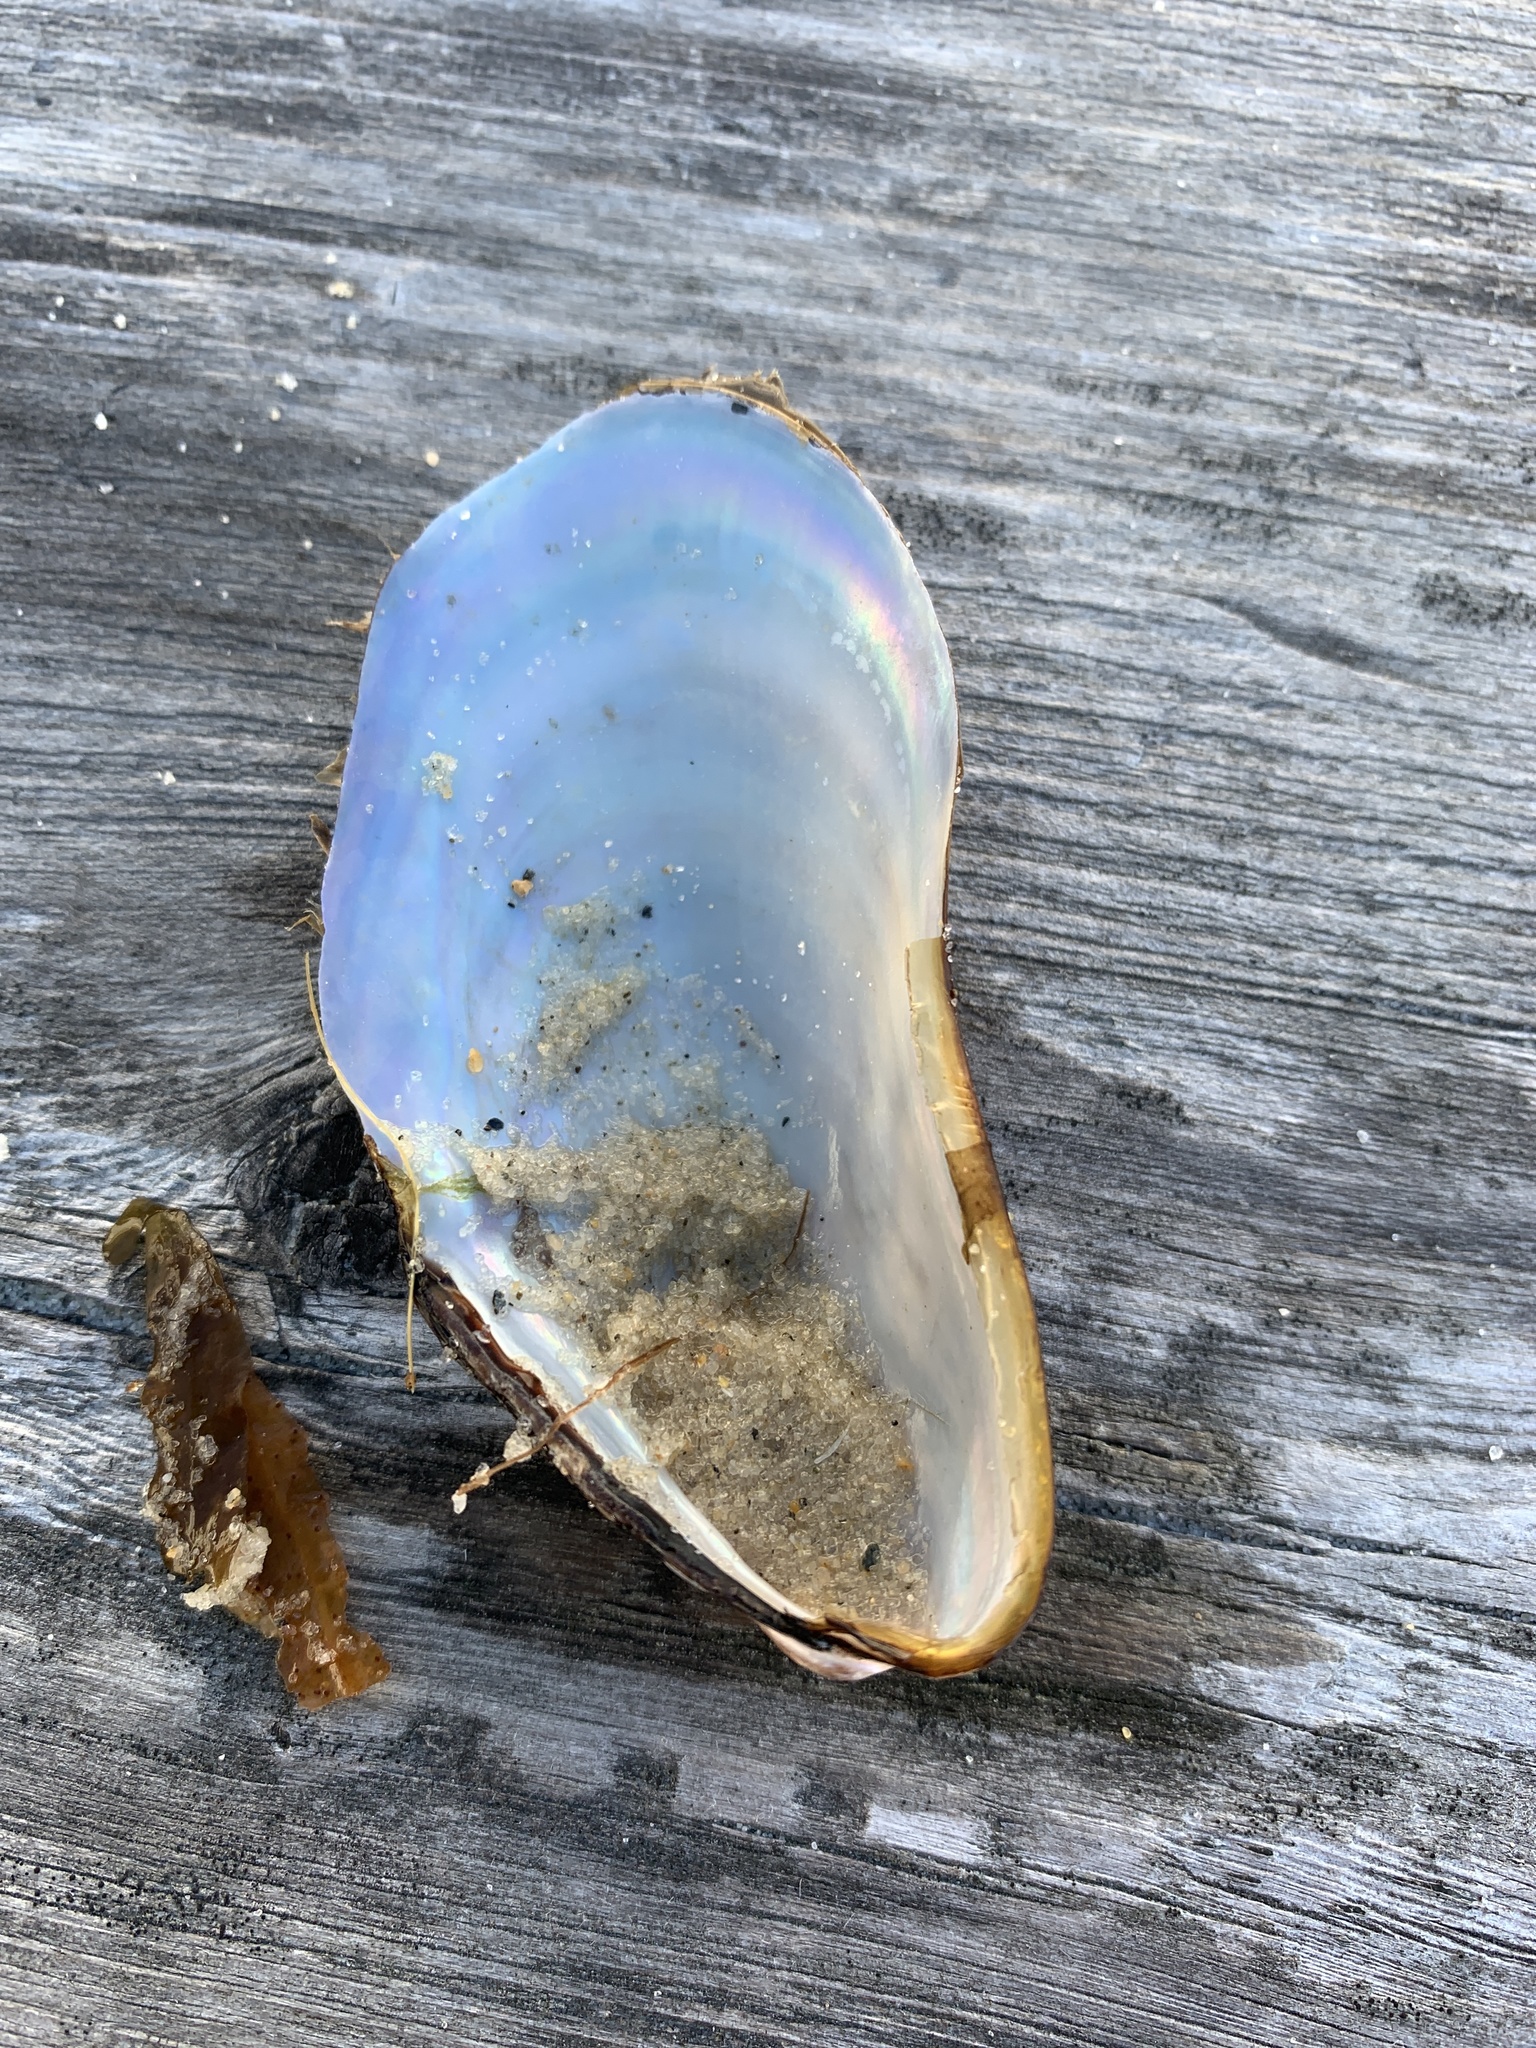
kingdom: Animalia
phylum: Mollusca
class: Bivalvia
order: Mytilida
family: Mytilidae
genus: Modiolus
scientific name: Modiolus modiolus
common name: Horse-mussel
